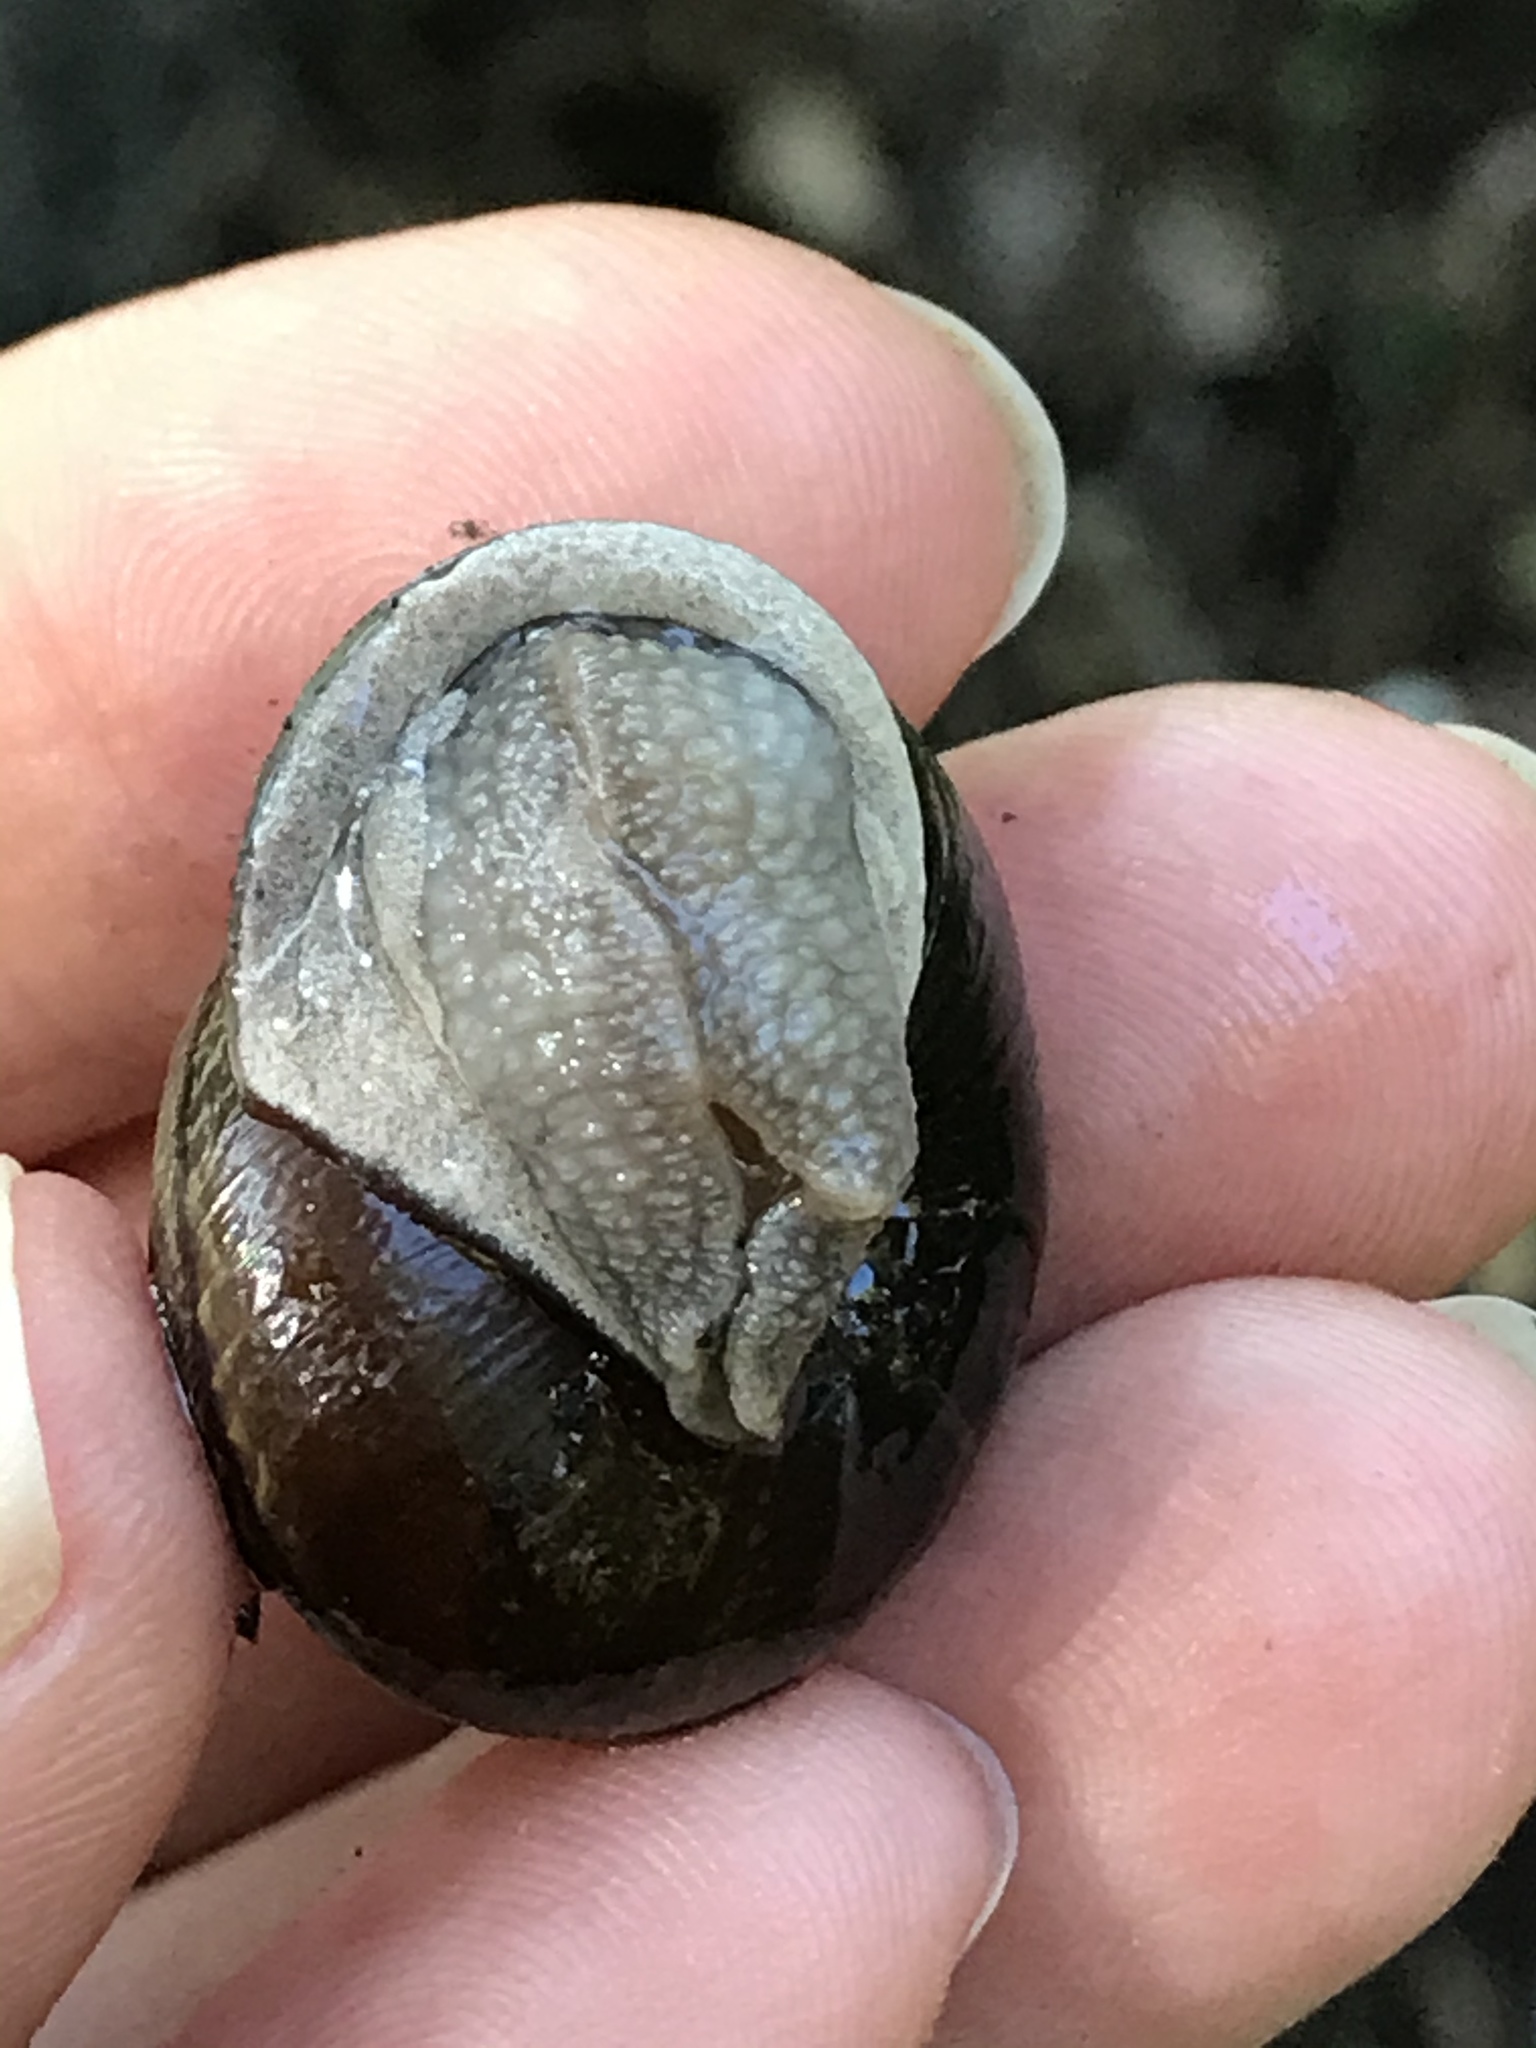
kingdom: Animalia
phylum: Mollusca
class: Gastropoda
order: Stylommatophora
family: Xanthonychidae
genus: Helminthoglypta
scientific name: Helminthoglypta arrosa
